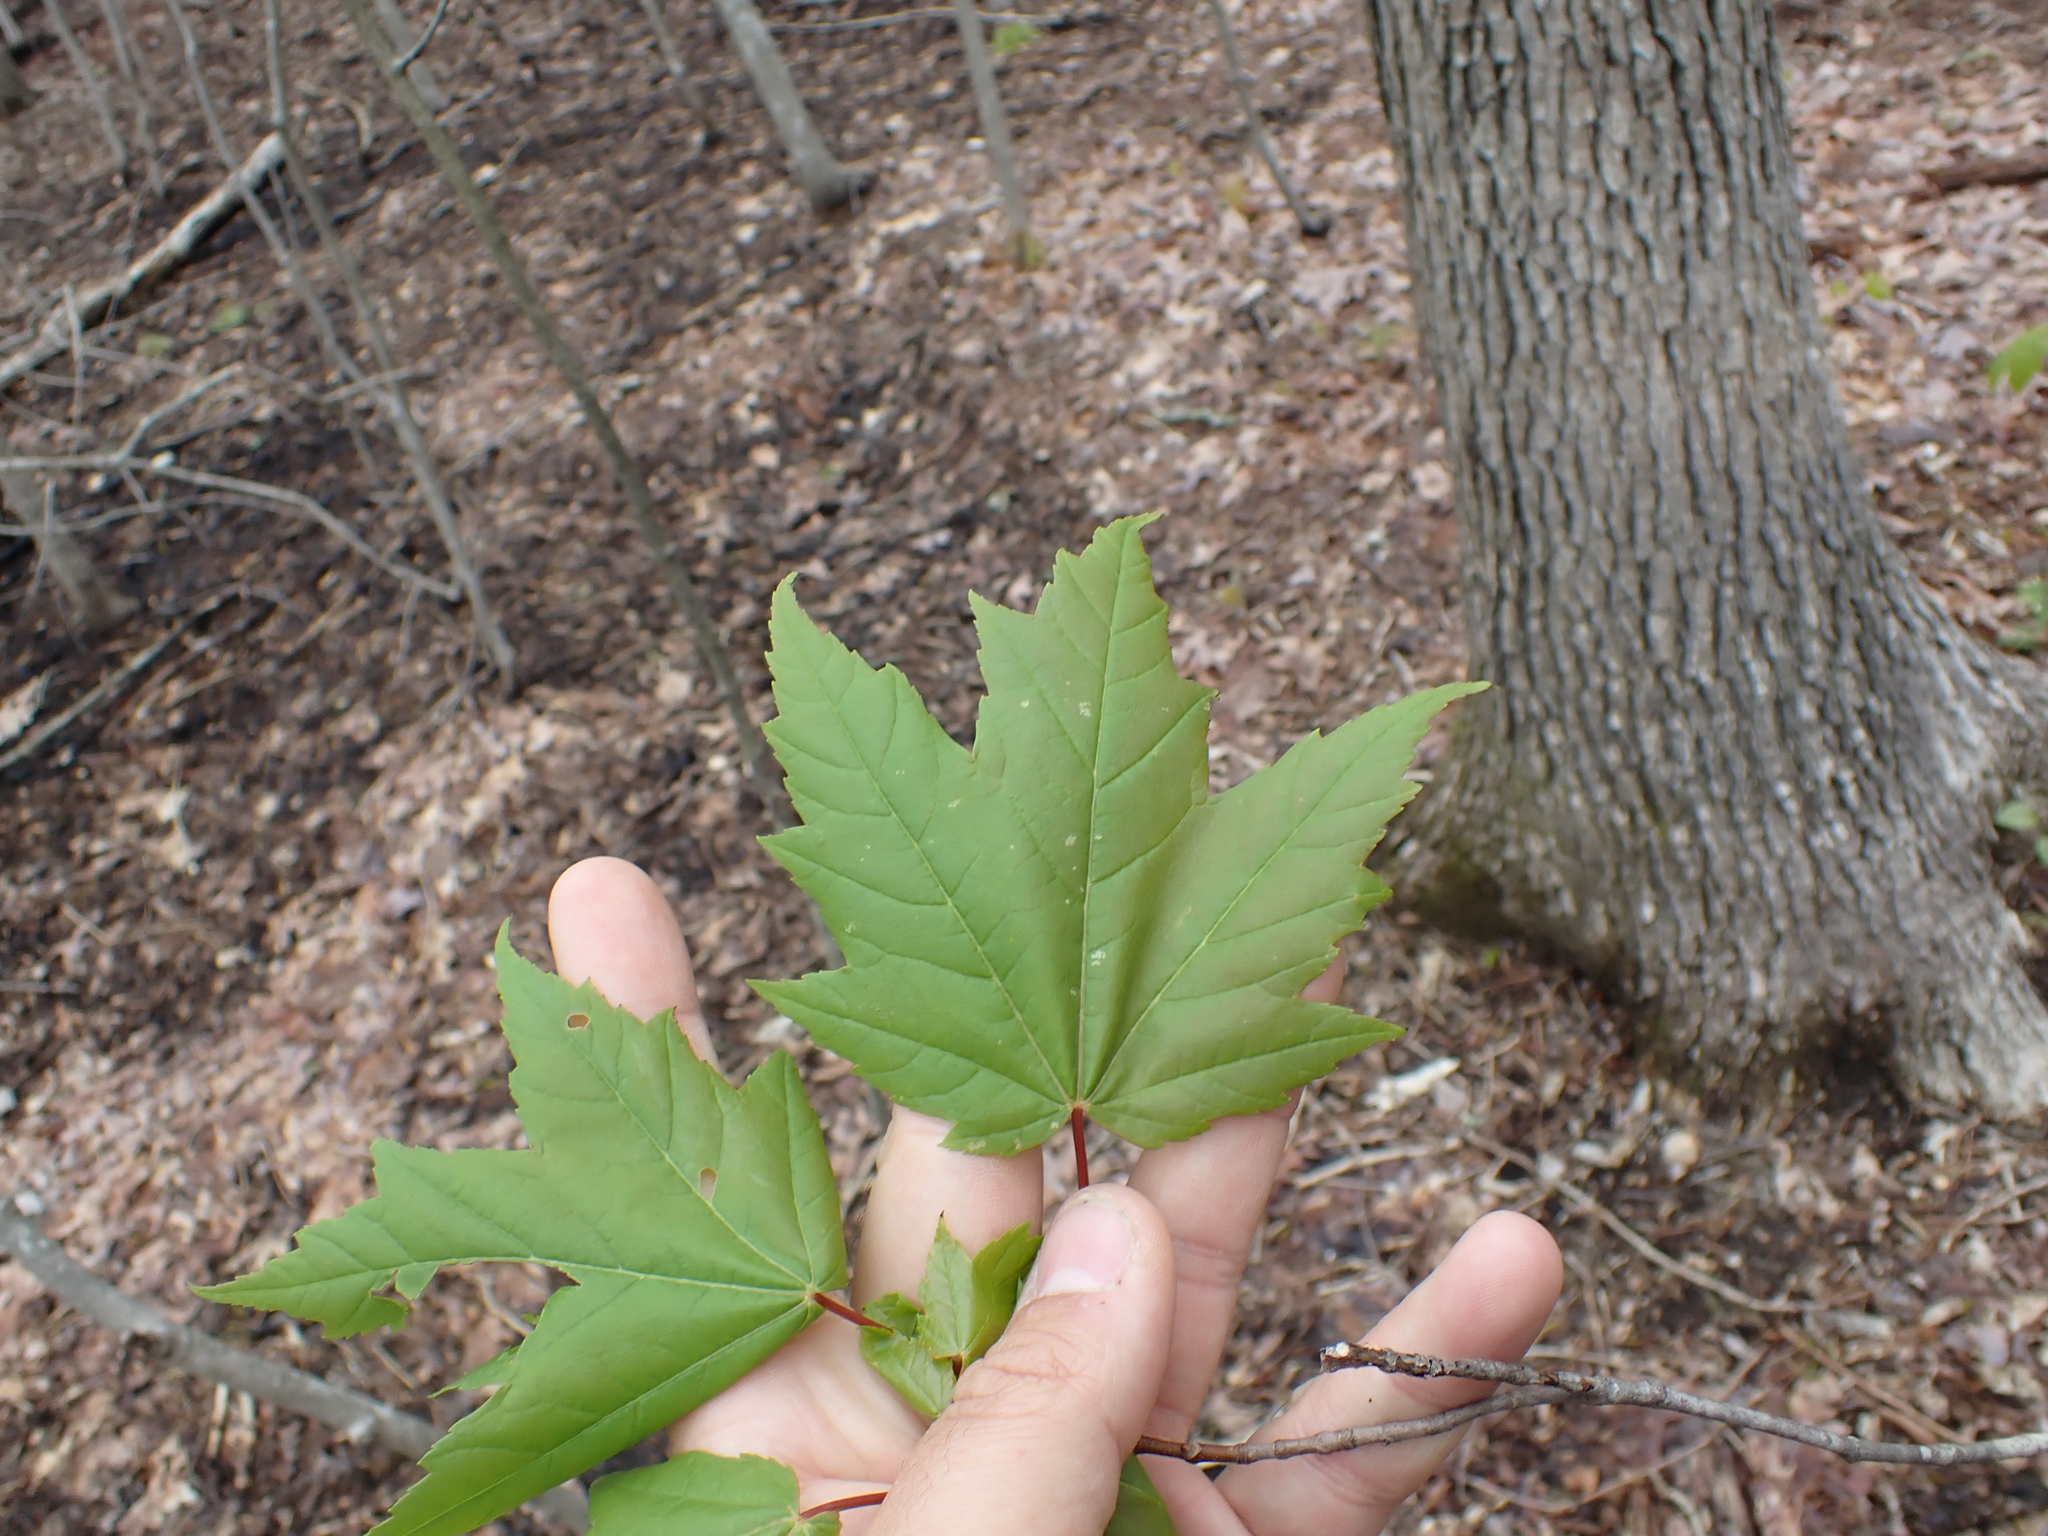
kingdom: Plantae
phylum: Tracheophyta
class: Magnoliopsida
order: Sapindales
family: Sapindaceae
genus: Acer
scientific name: Acer rubrum
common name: Red maple
